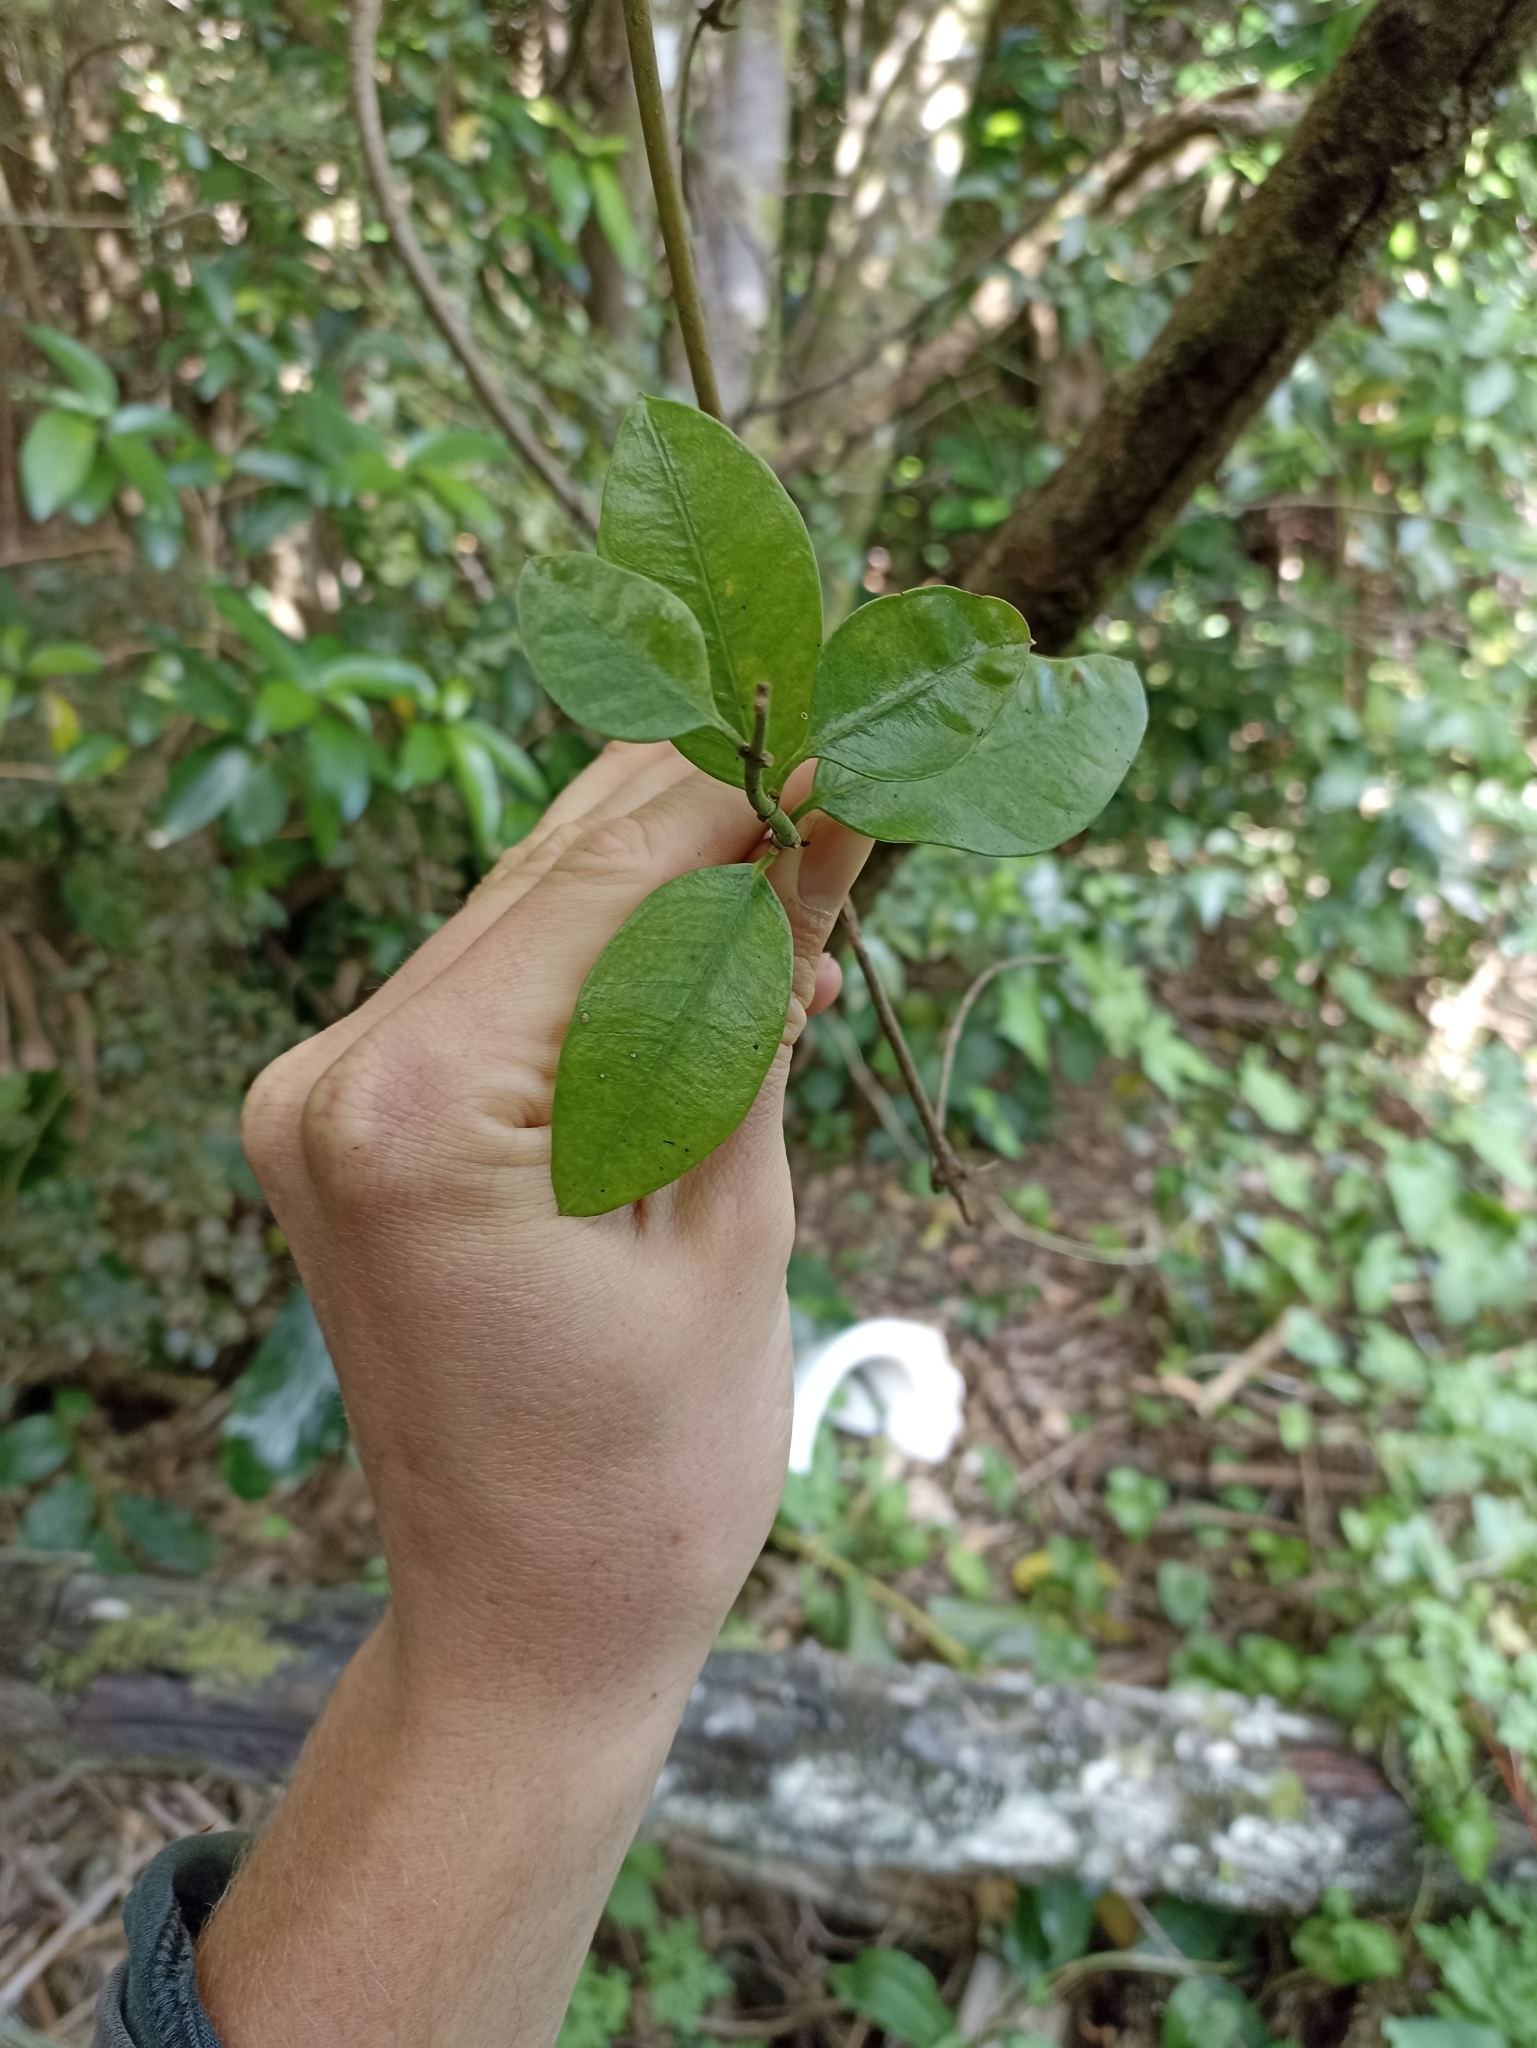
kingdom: Plantae
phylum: Tracheophyta
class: Magnoliopsida
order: Gentianales
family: Apocynaceae
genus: Parsonsia
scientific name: Parsonsia heterophylla
